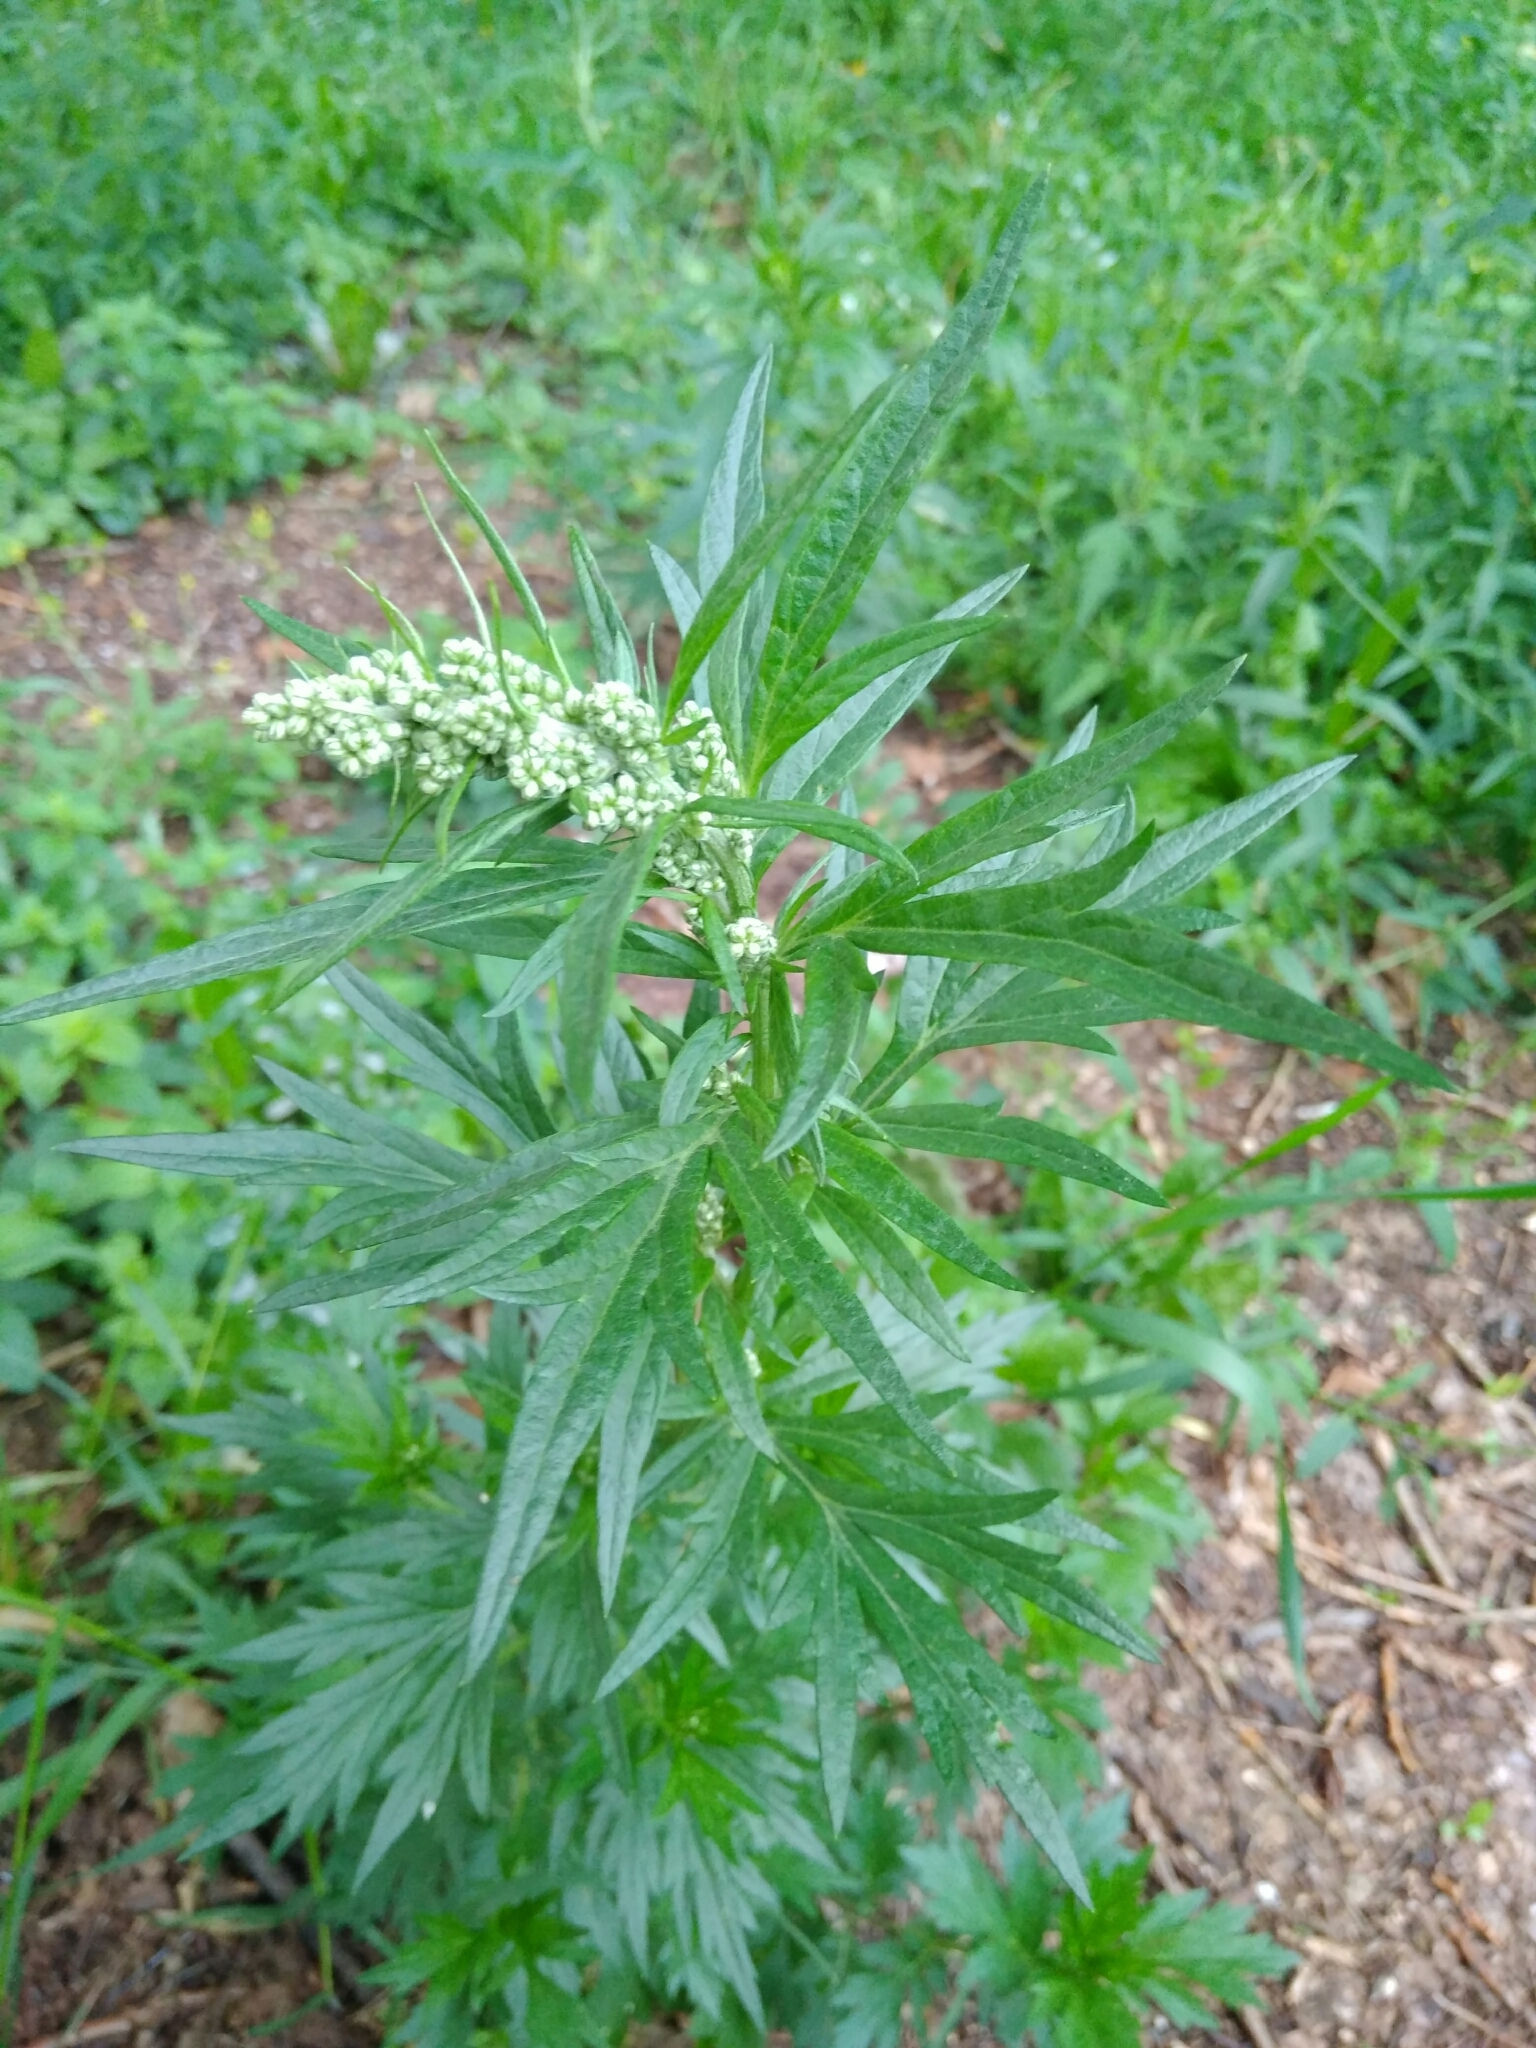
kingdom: Plantae
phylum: Tracheophyta
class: Magnoliopsida
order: Asterales
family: Asteraceae
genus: Artemisia
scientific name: Artemisia vulgaris
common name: Mugwort
